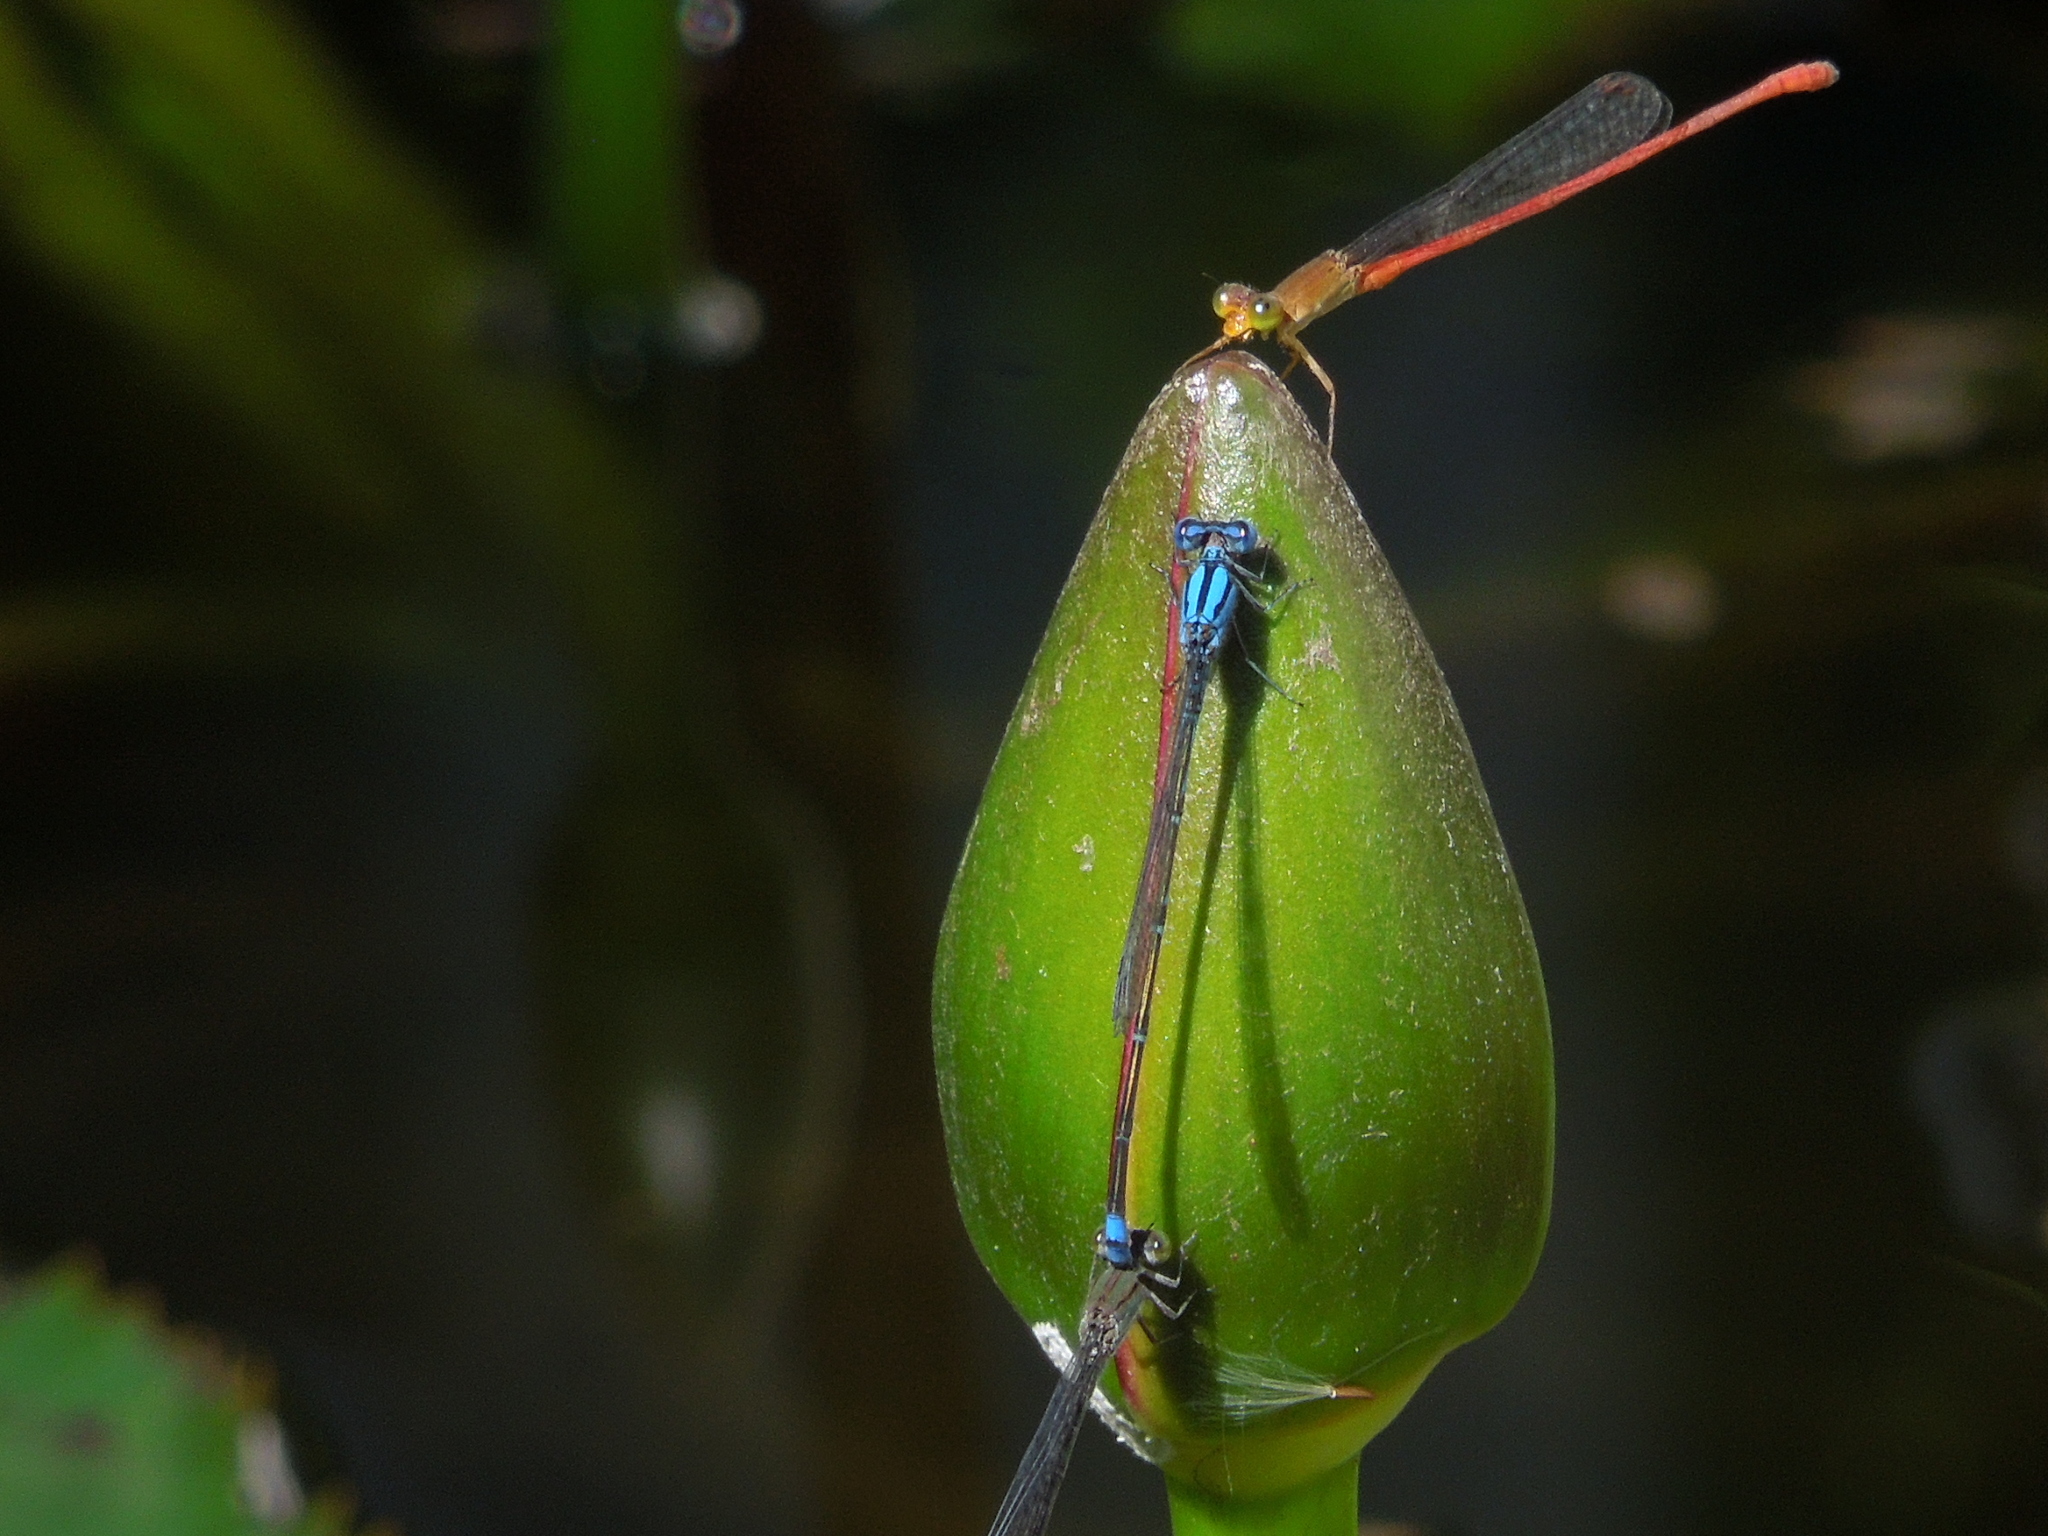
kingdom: Animalia
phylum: Arthropoda
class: Insecta
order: Odonata
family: Coenagrionidae
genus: Pseudagrion
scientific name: Pseudagrion microcephalum
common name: Blue riverdamsel
